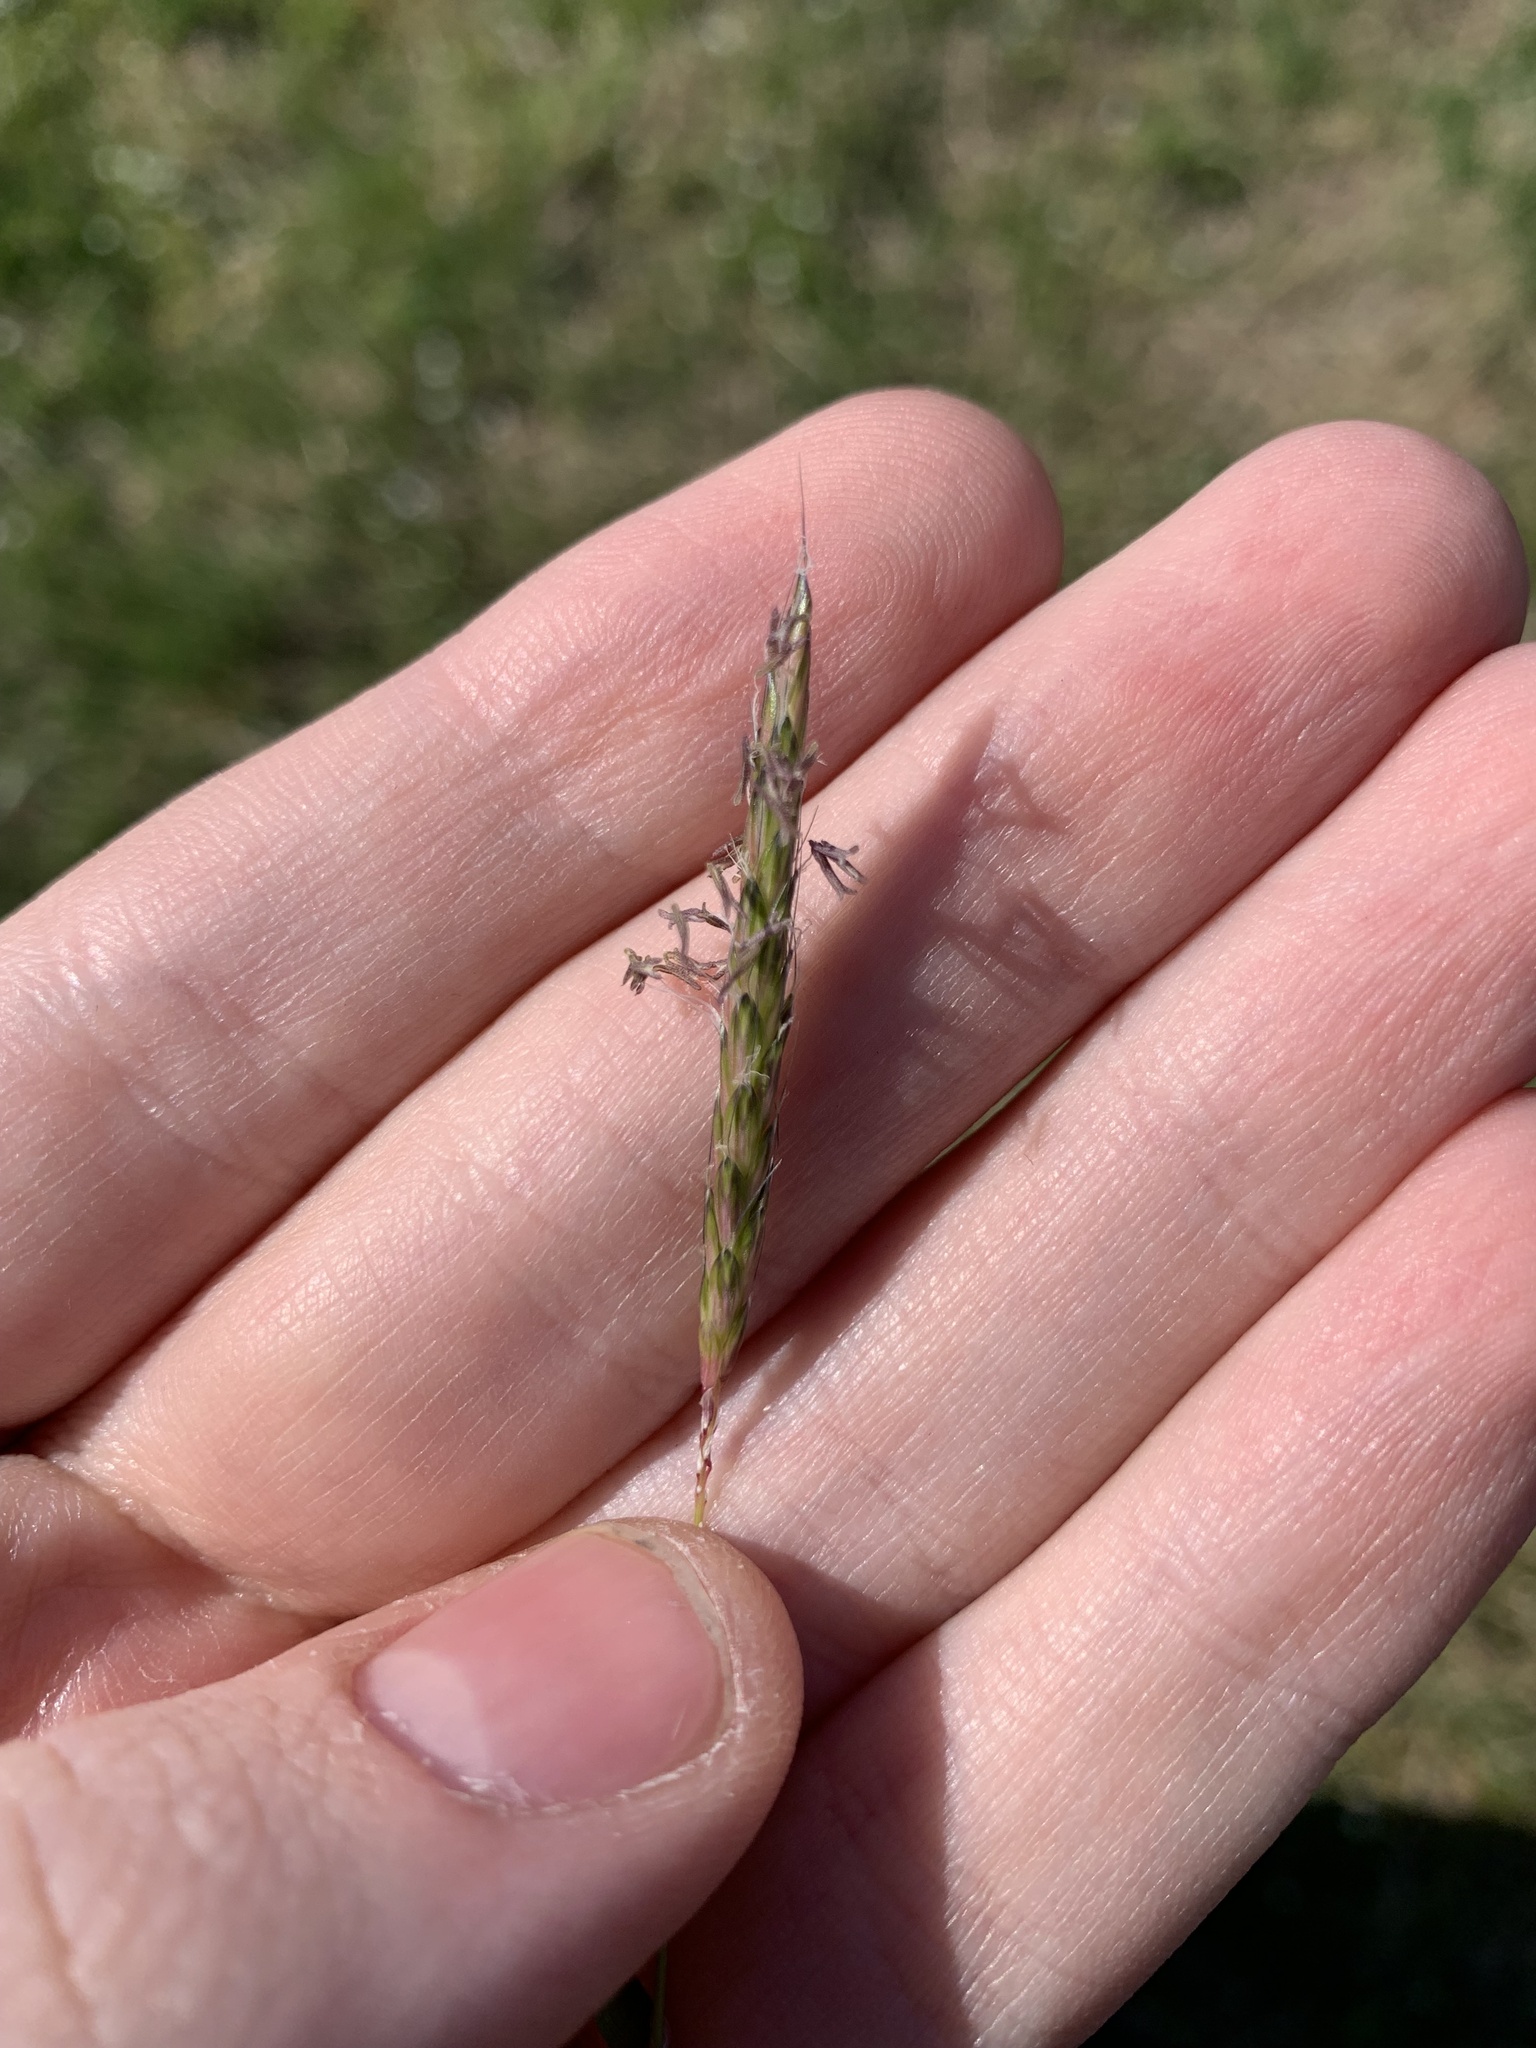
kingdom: Plantae
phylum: Tracheophyta
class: Liliopsida
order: Poales
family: Poaceae
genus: Alopecurus
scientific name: Alopecurus myosuroides
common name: Black-grass
